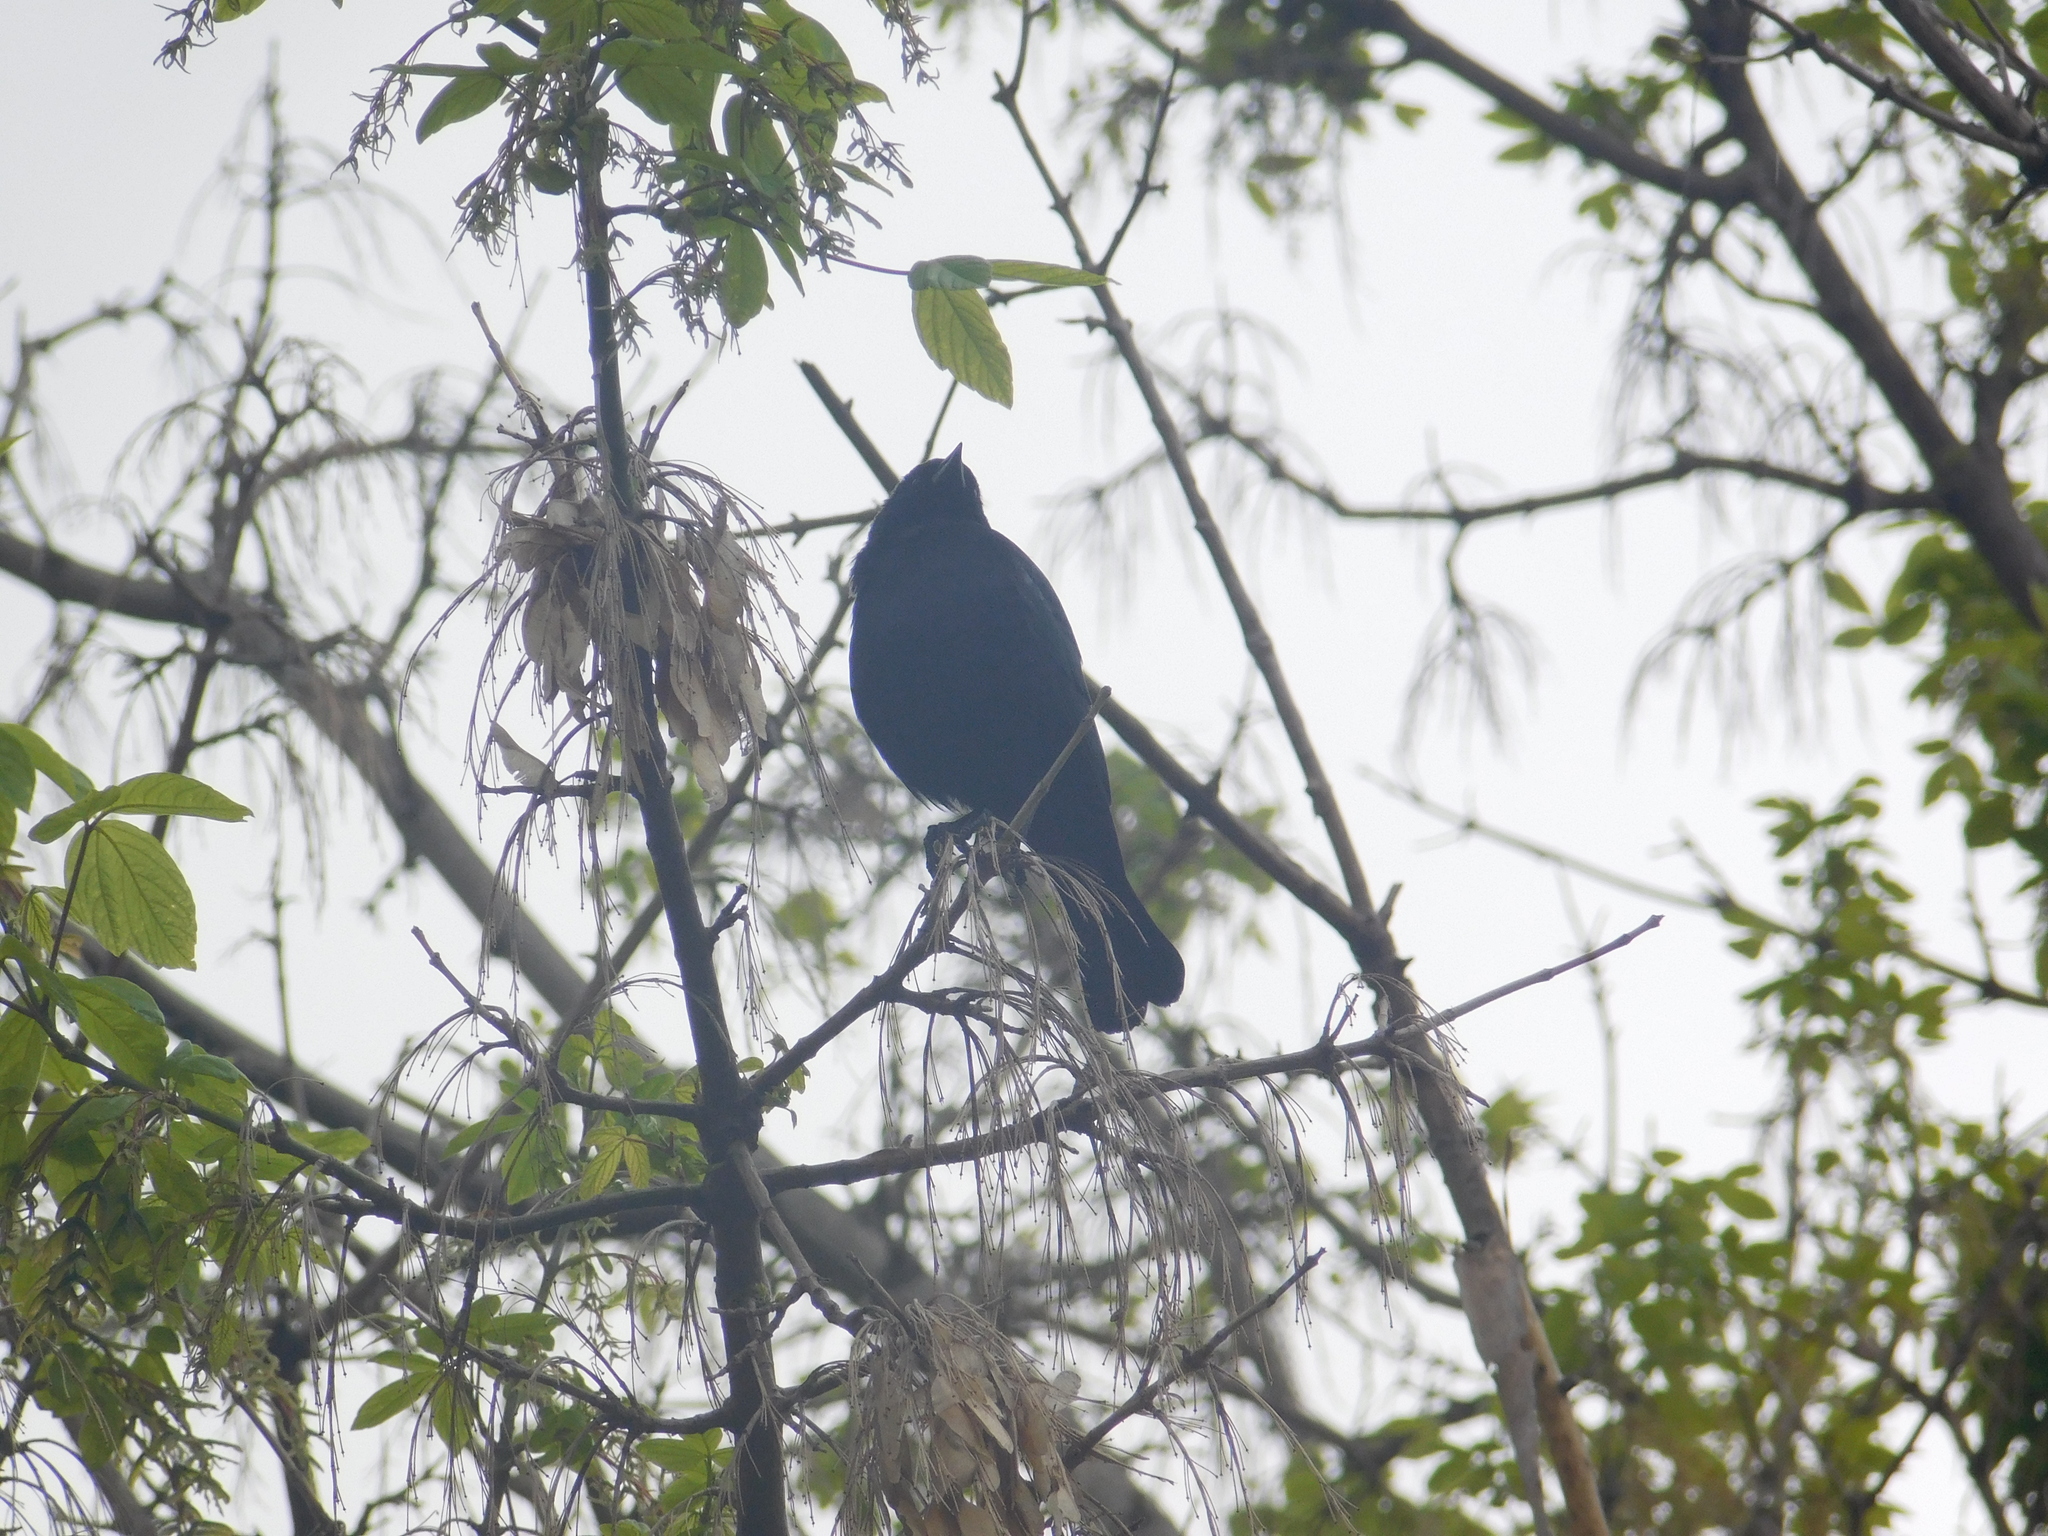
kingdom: Animalia
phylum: Chordata
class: Aves
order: Passeriformes
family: Icteridae
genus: Molothrus
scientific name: Molothrus rufoaxillaris
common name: Screaming cowbird
